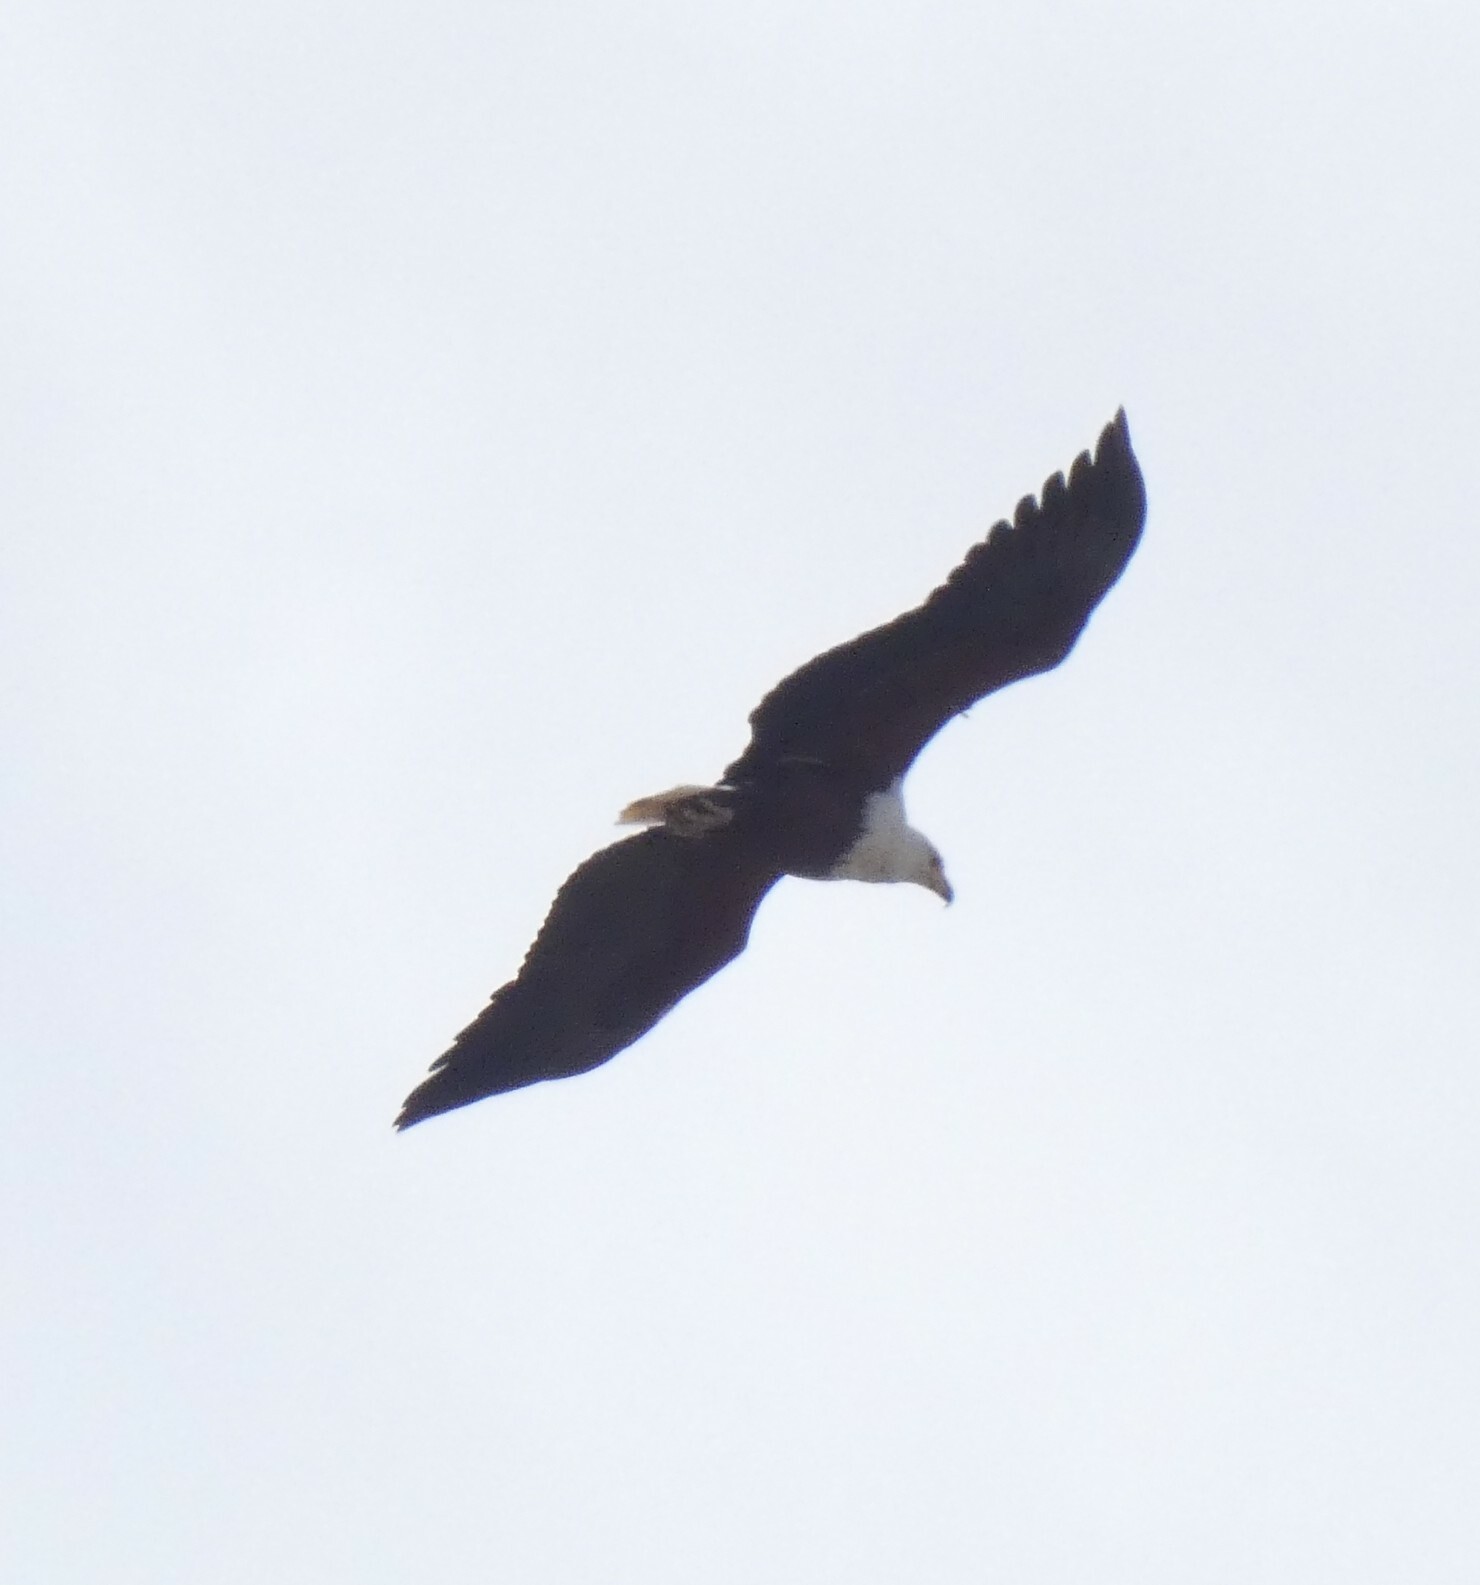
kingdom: Animalia
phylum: Chordata
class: Aves
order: Accipitriformes
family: Accipitridae
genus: Haliaeetus
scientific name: Haliaeetus vocifer
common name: African fish eagle
